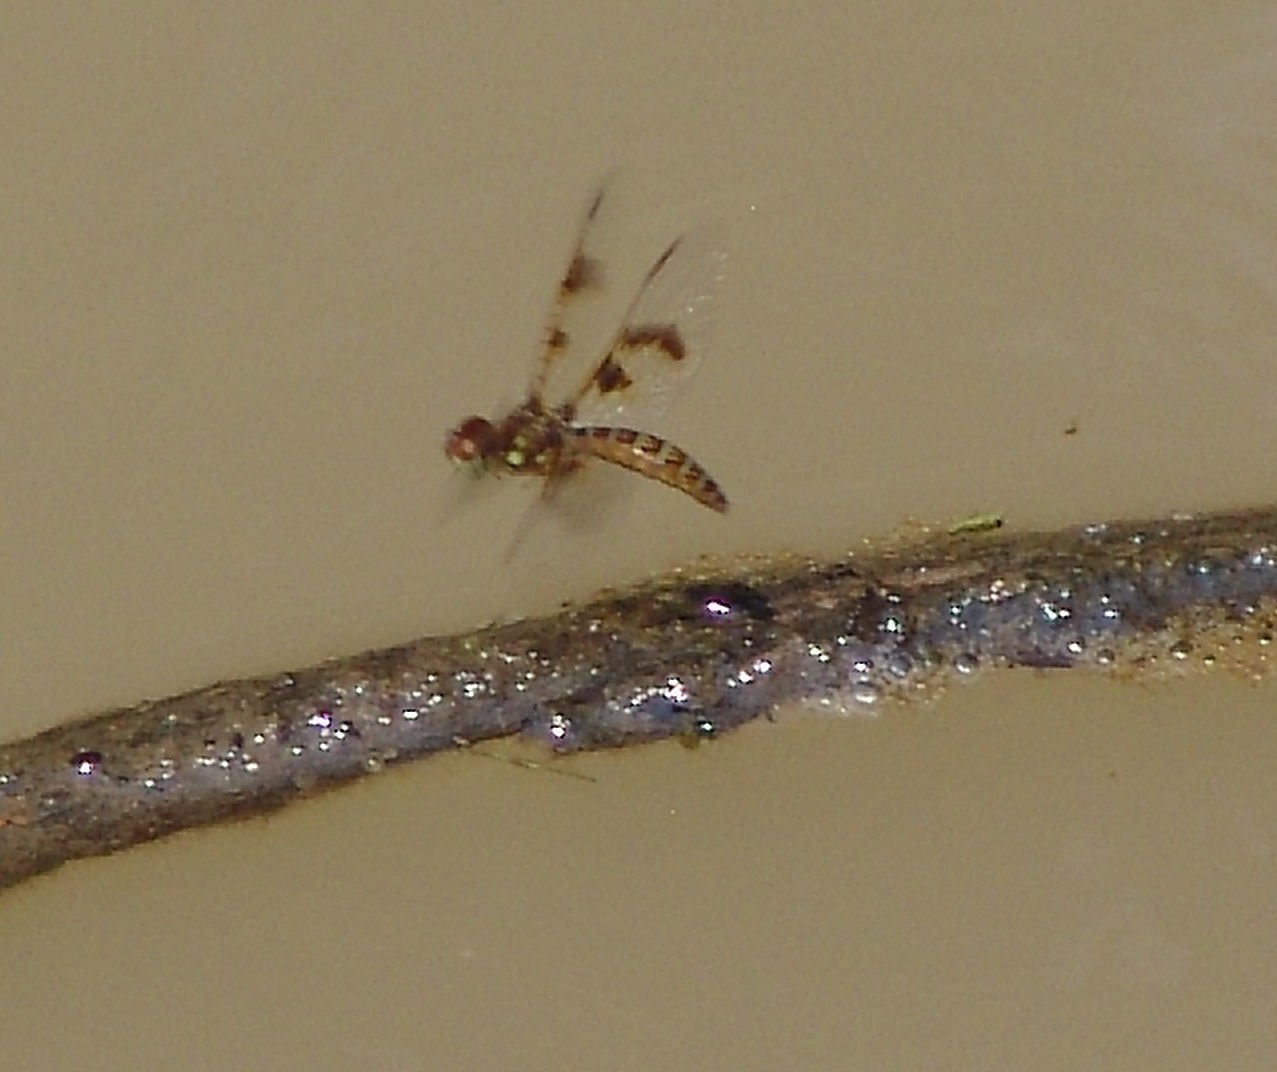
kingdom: Animalia
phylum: Arthropoda
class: Insecta
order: Odonata
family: Libellulidae
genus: Perithemis
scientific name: Perithemis tenera
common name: Eastern amberwing
